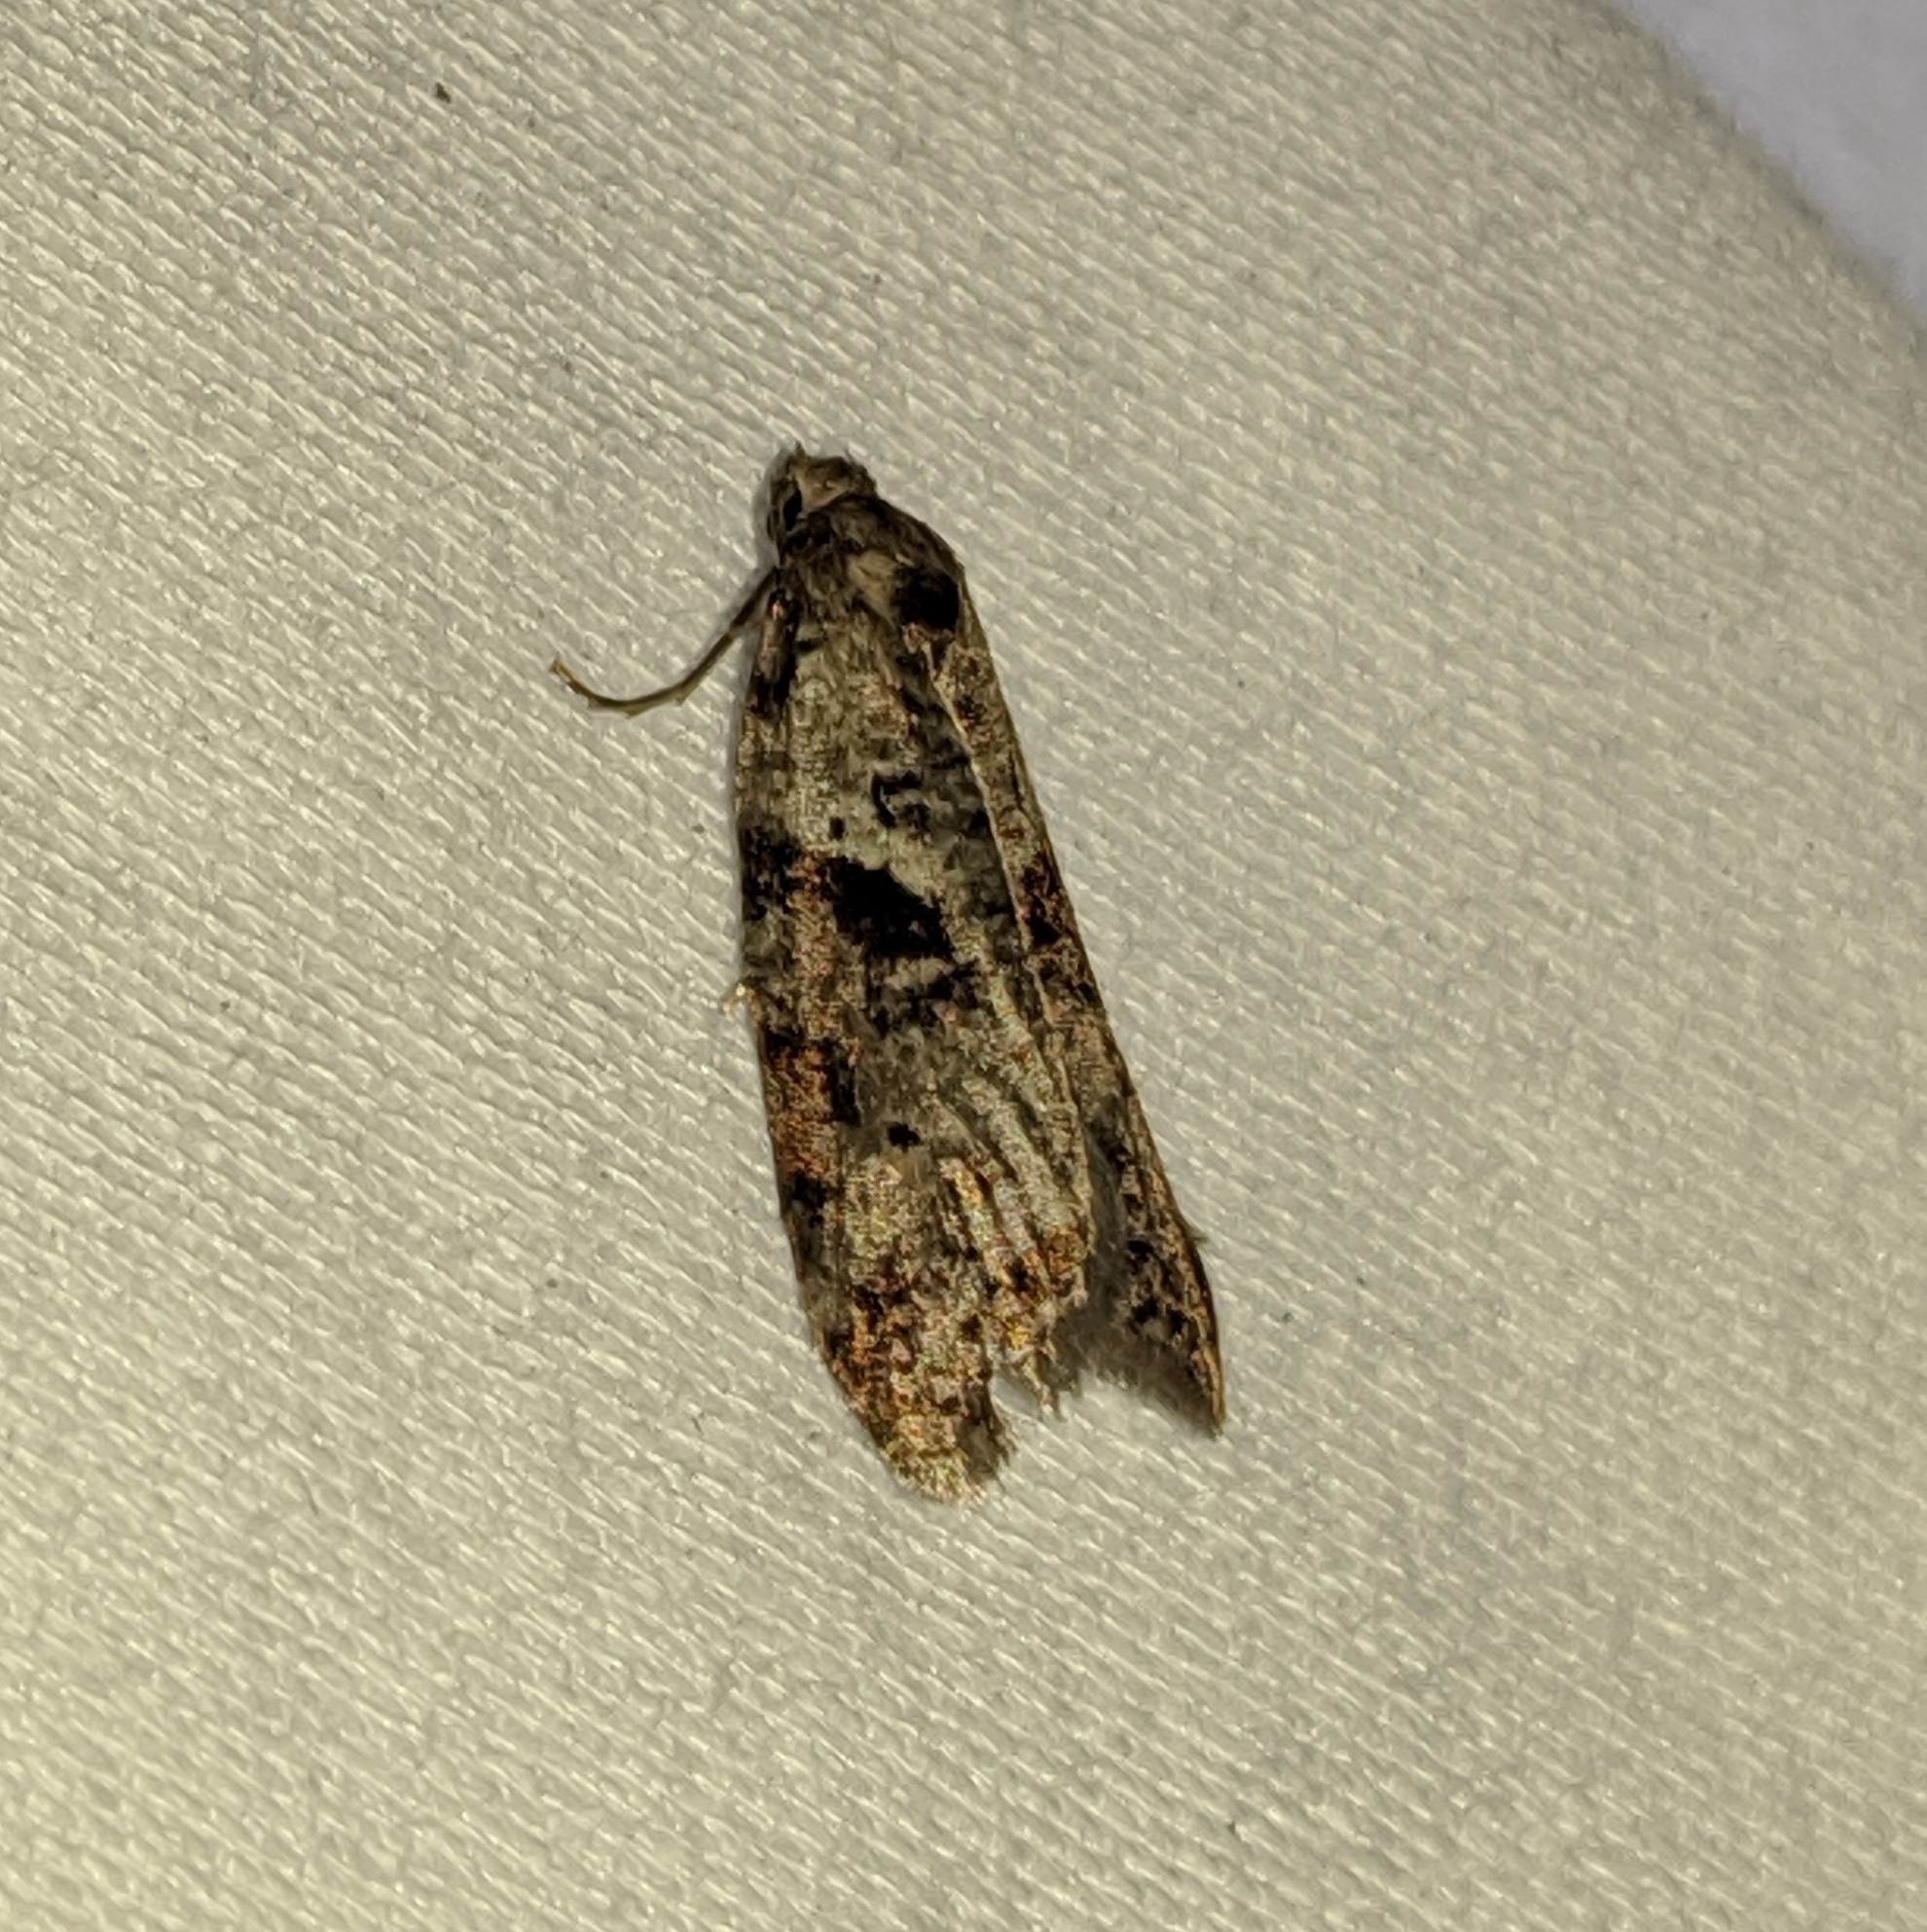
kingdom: Animalia
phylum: Arthropoda
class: Insecta
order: Lepidoptera
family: Copromorphidae
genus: Lotisma
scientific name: Lotisma trigonana
